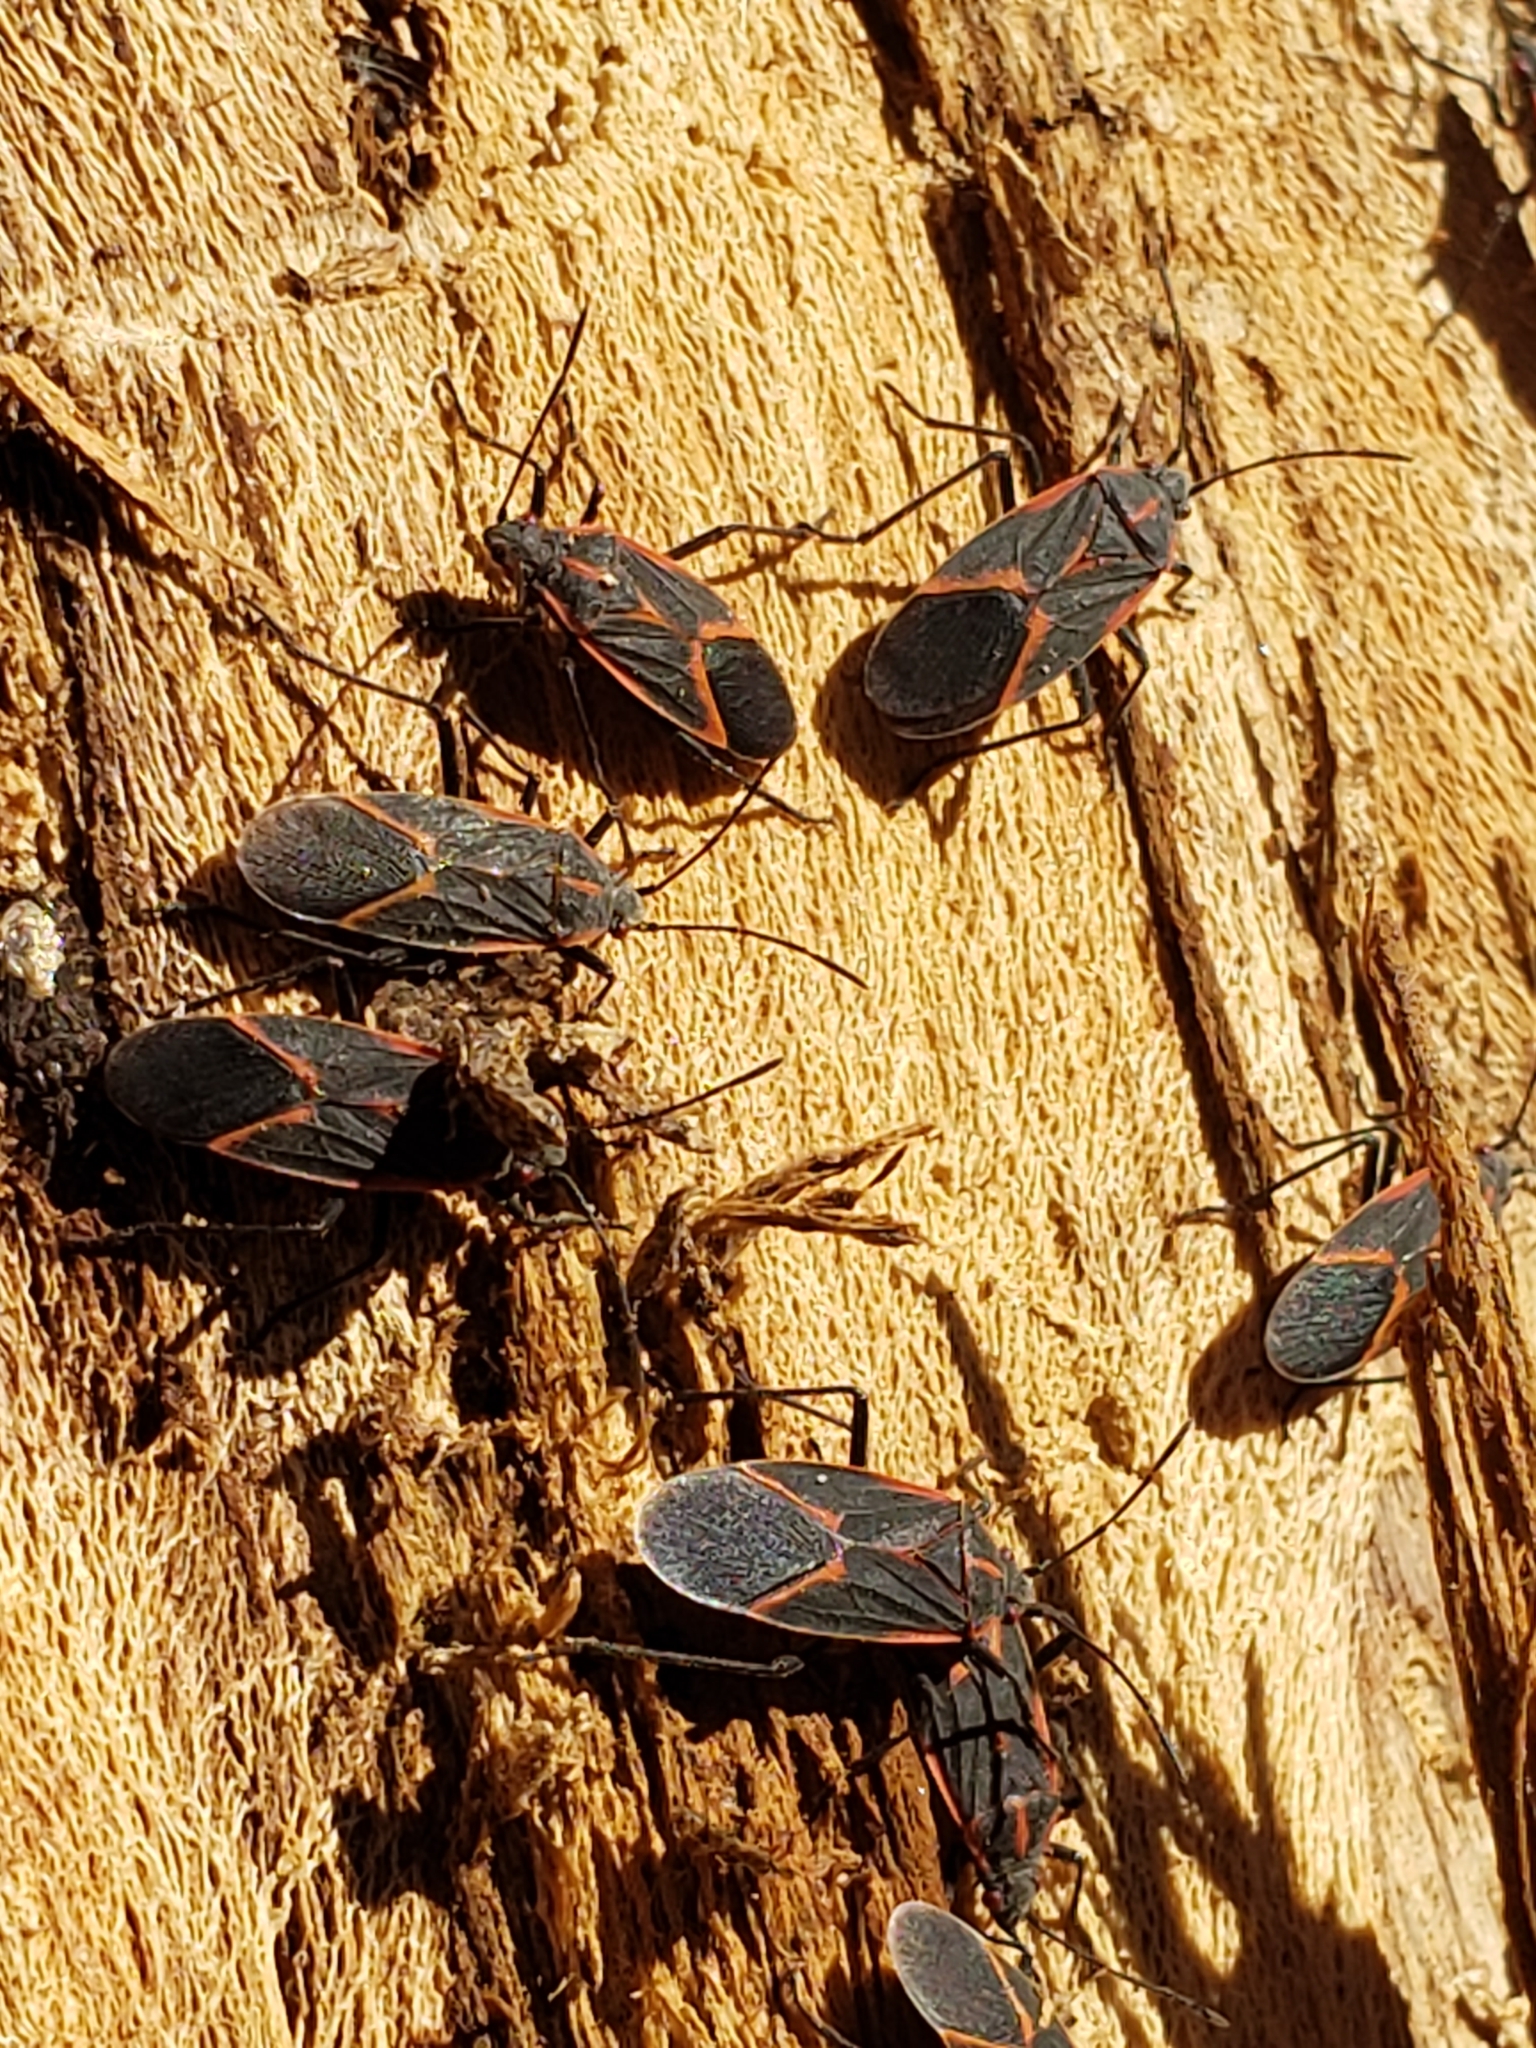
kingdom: Animalia
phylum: Arthropoda
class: Insecta
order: Hemiptera
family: Rhopalidae
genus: Boisea
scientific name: Boisea trivittata
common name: Boxelder bug
